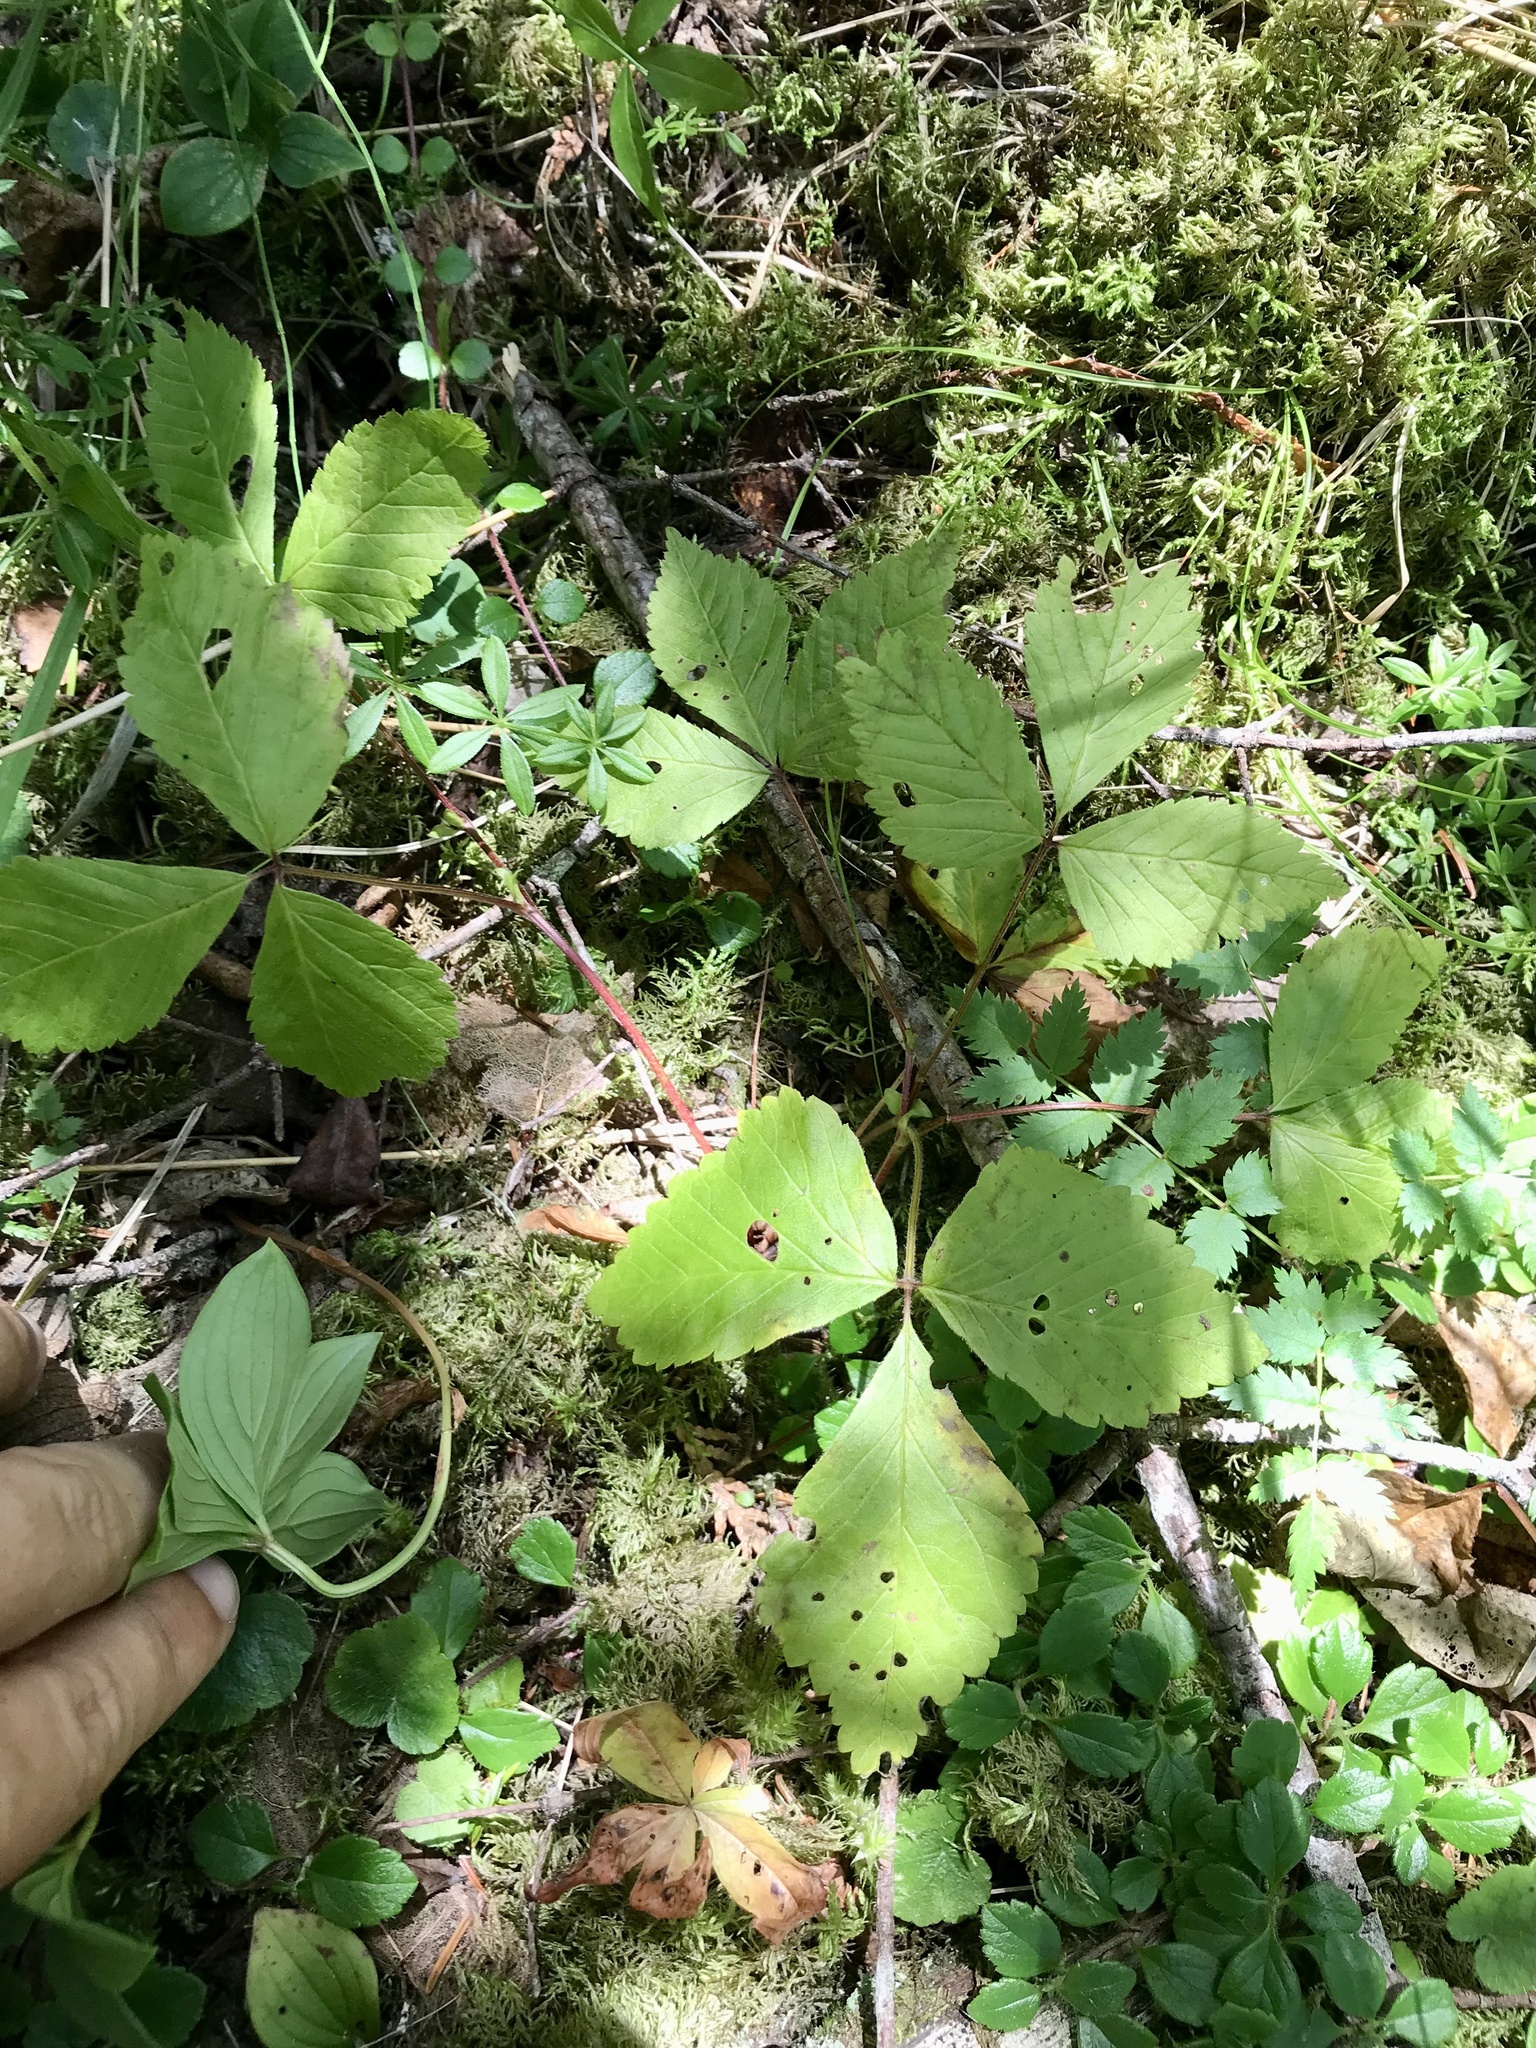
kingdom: Plantae
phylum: Tracheophyta
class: Magnoliopsida
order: Rosales
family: Rosaceae
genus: Rubus
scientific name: Rubus pubescens
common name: Dwarf raspberry
